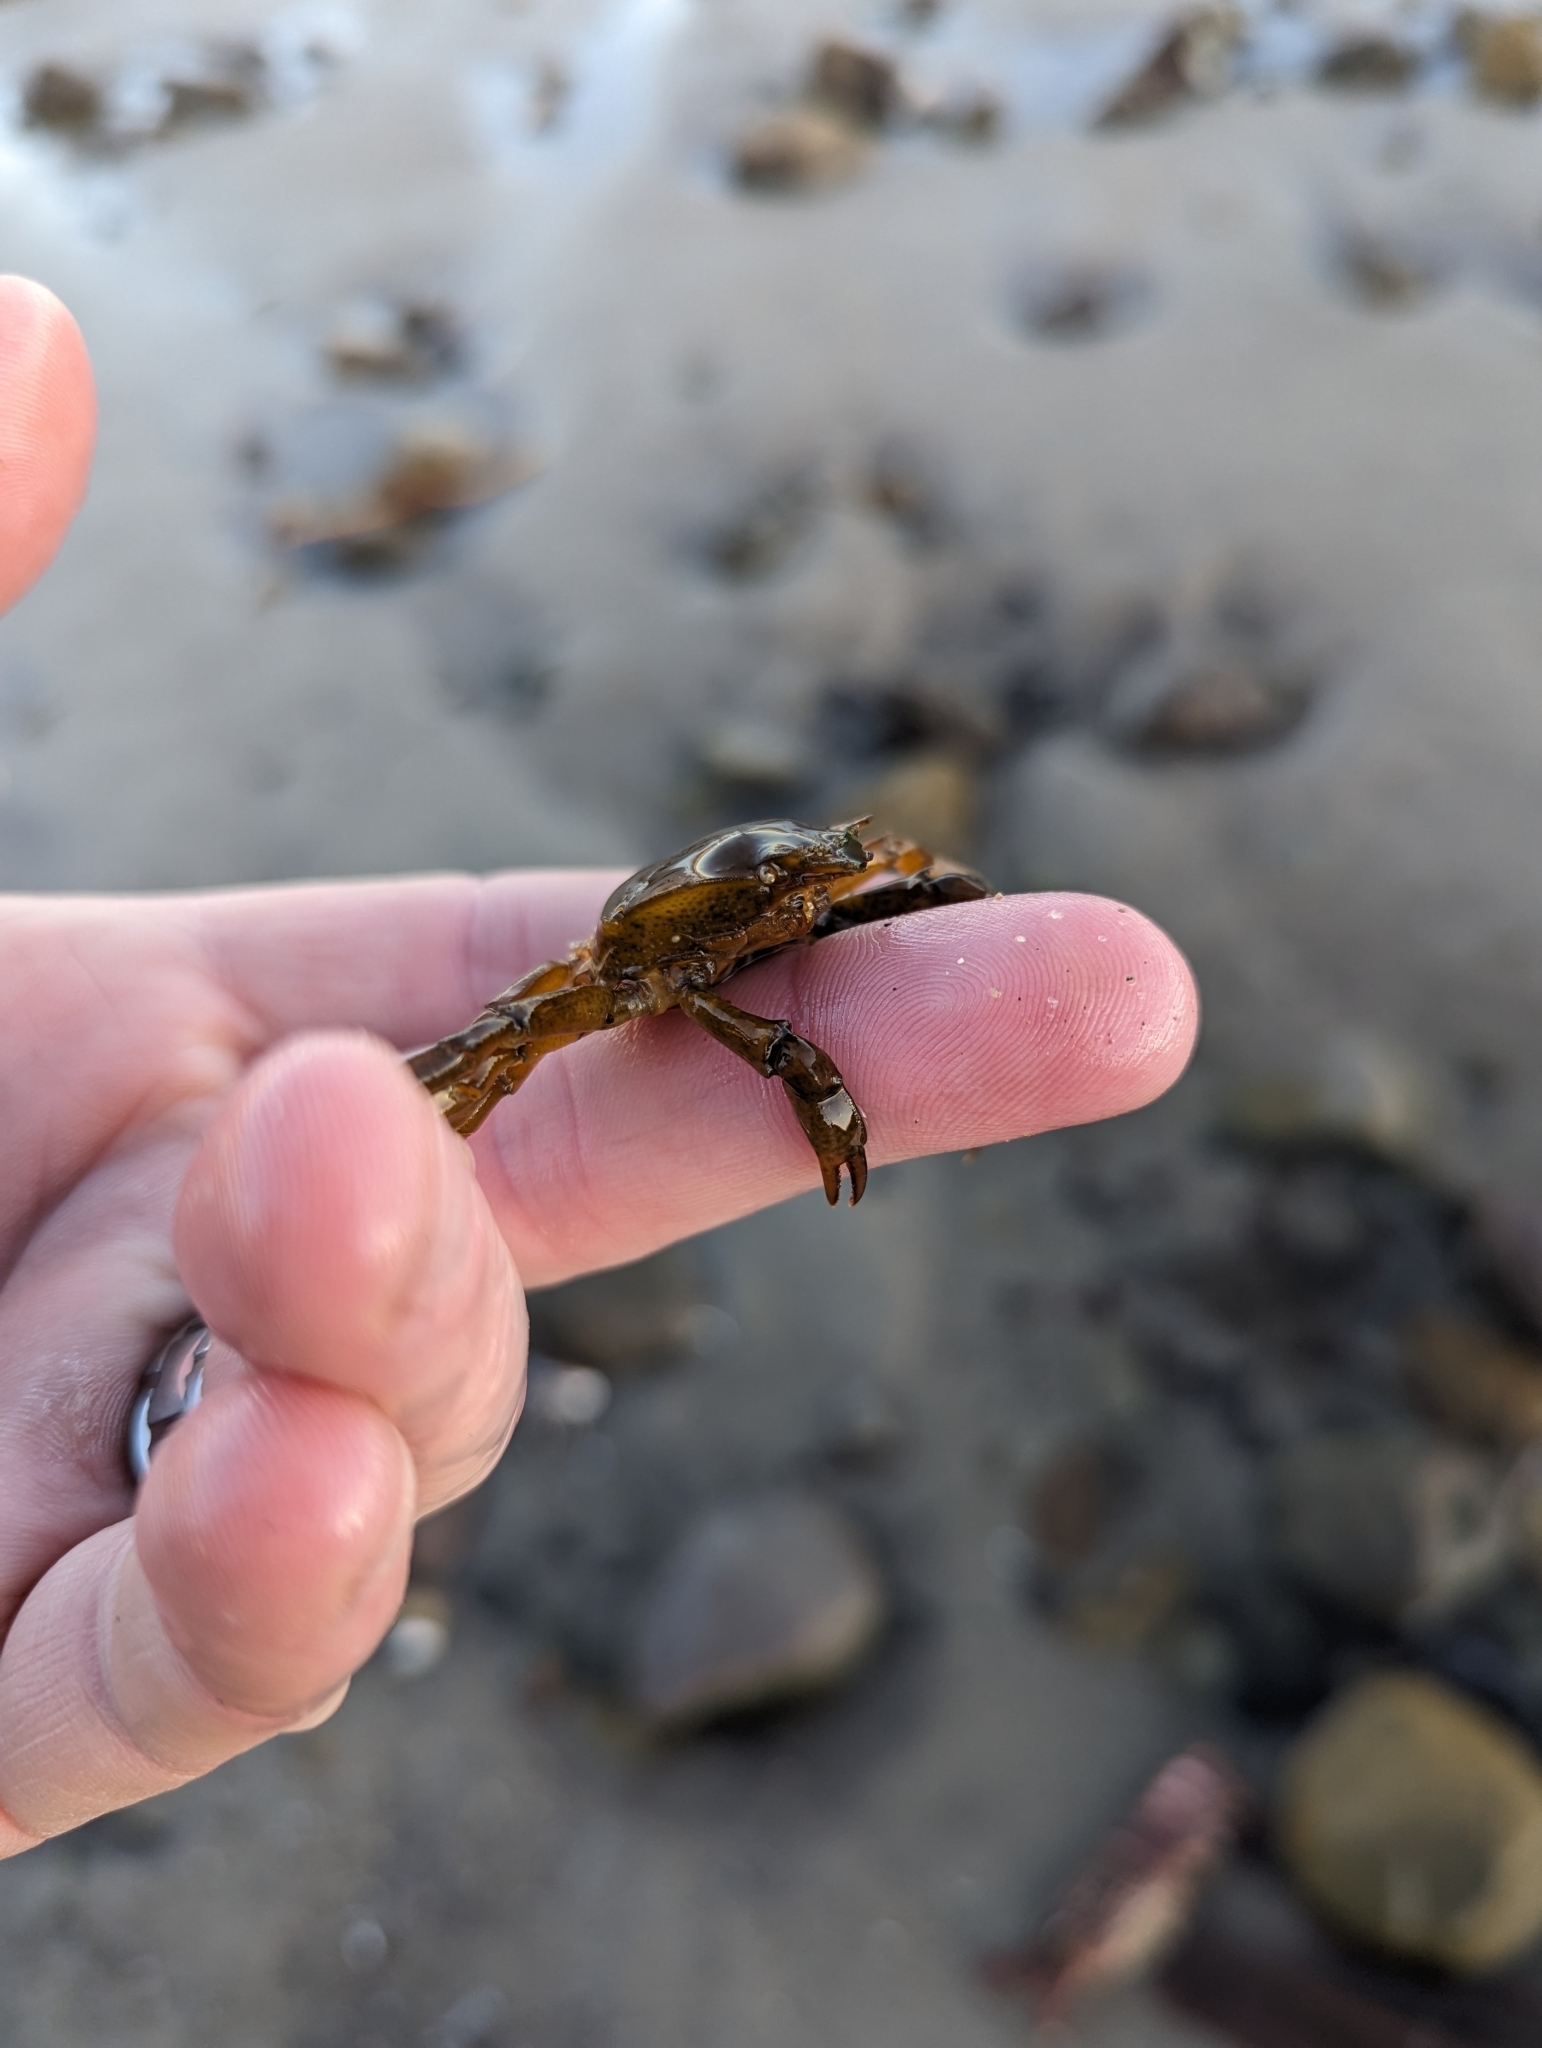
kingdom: Animalia
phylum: Arthropoda
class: Malacostraca
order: Decapoda
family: Epialtidae
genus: Pugettia
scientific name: Pugettia producta
